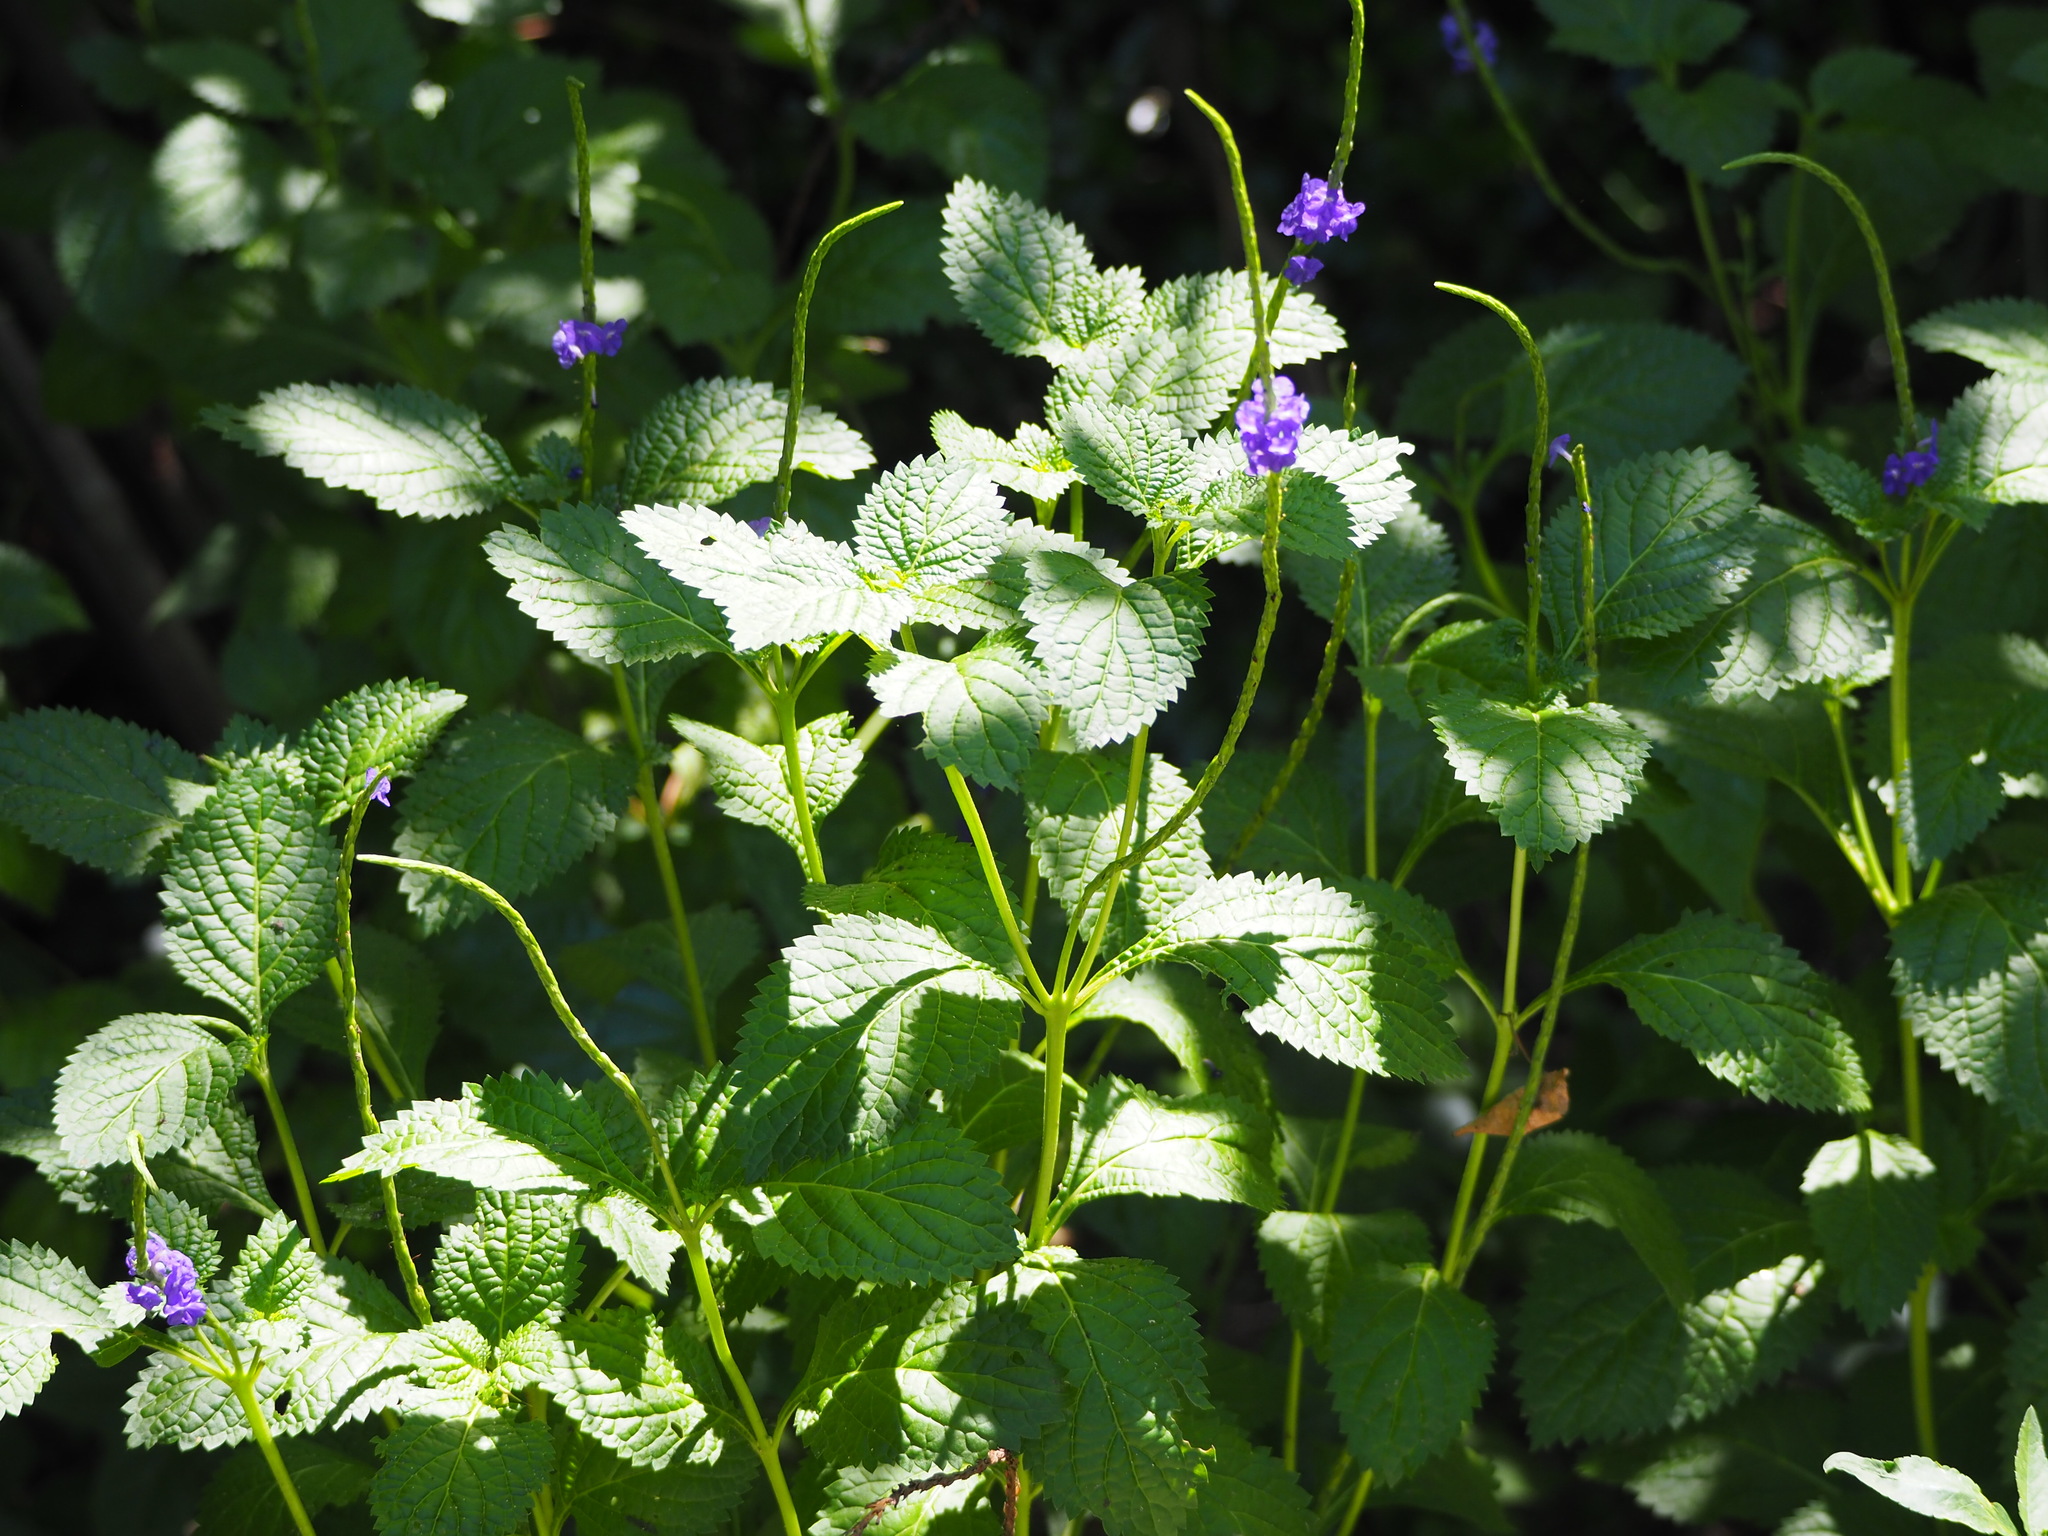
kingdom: Plantae
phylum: Tracheophyta
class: Magnoliopsida
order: Lamiales
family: Verbenaceae
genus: Stachytarpheta
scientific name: Stachytarpheta urticifolia
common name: Nettleleaf velvetberry
